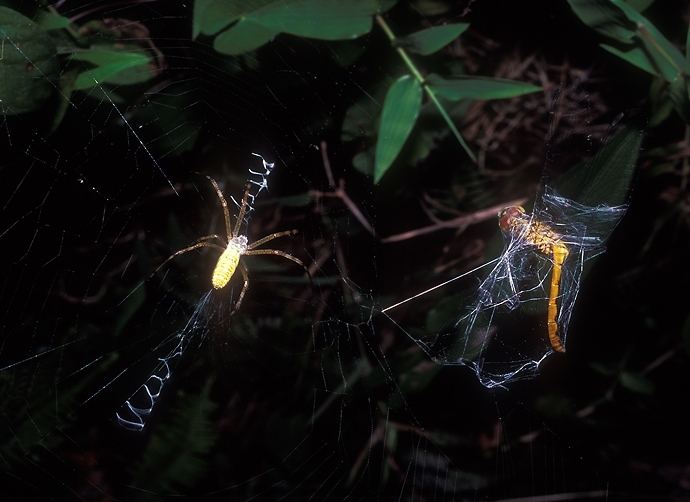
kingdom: Animalia
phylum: Arthropoda
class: Arachnida
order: Araneae
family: Araneidae
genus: Argiope
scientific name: Argiope bruennichi
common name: Wasp spider
